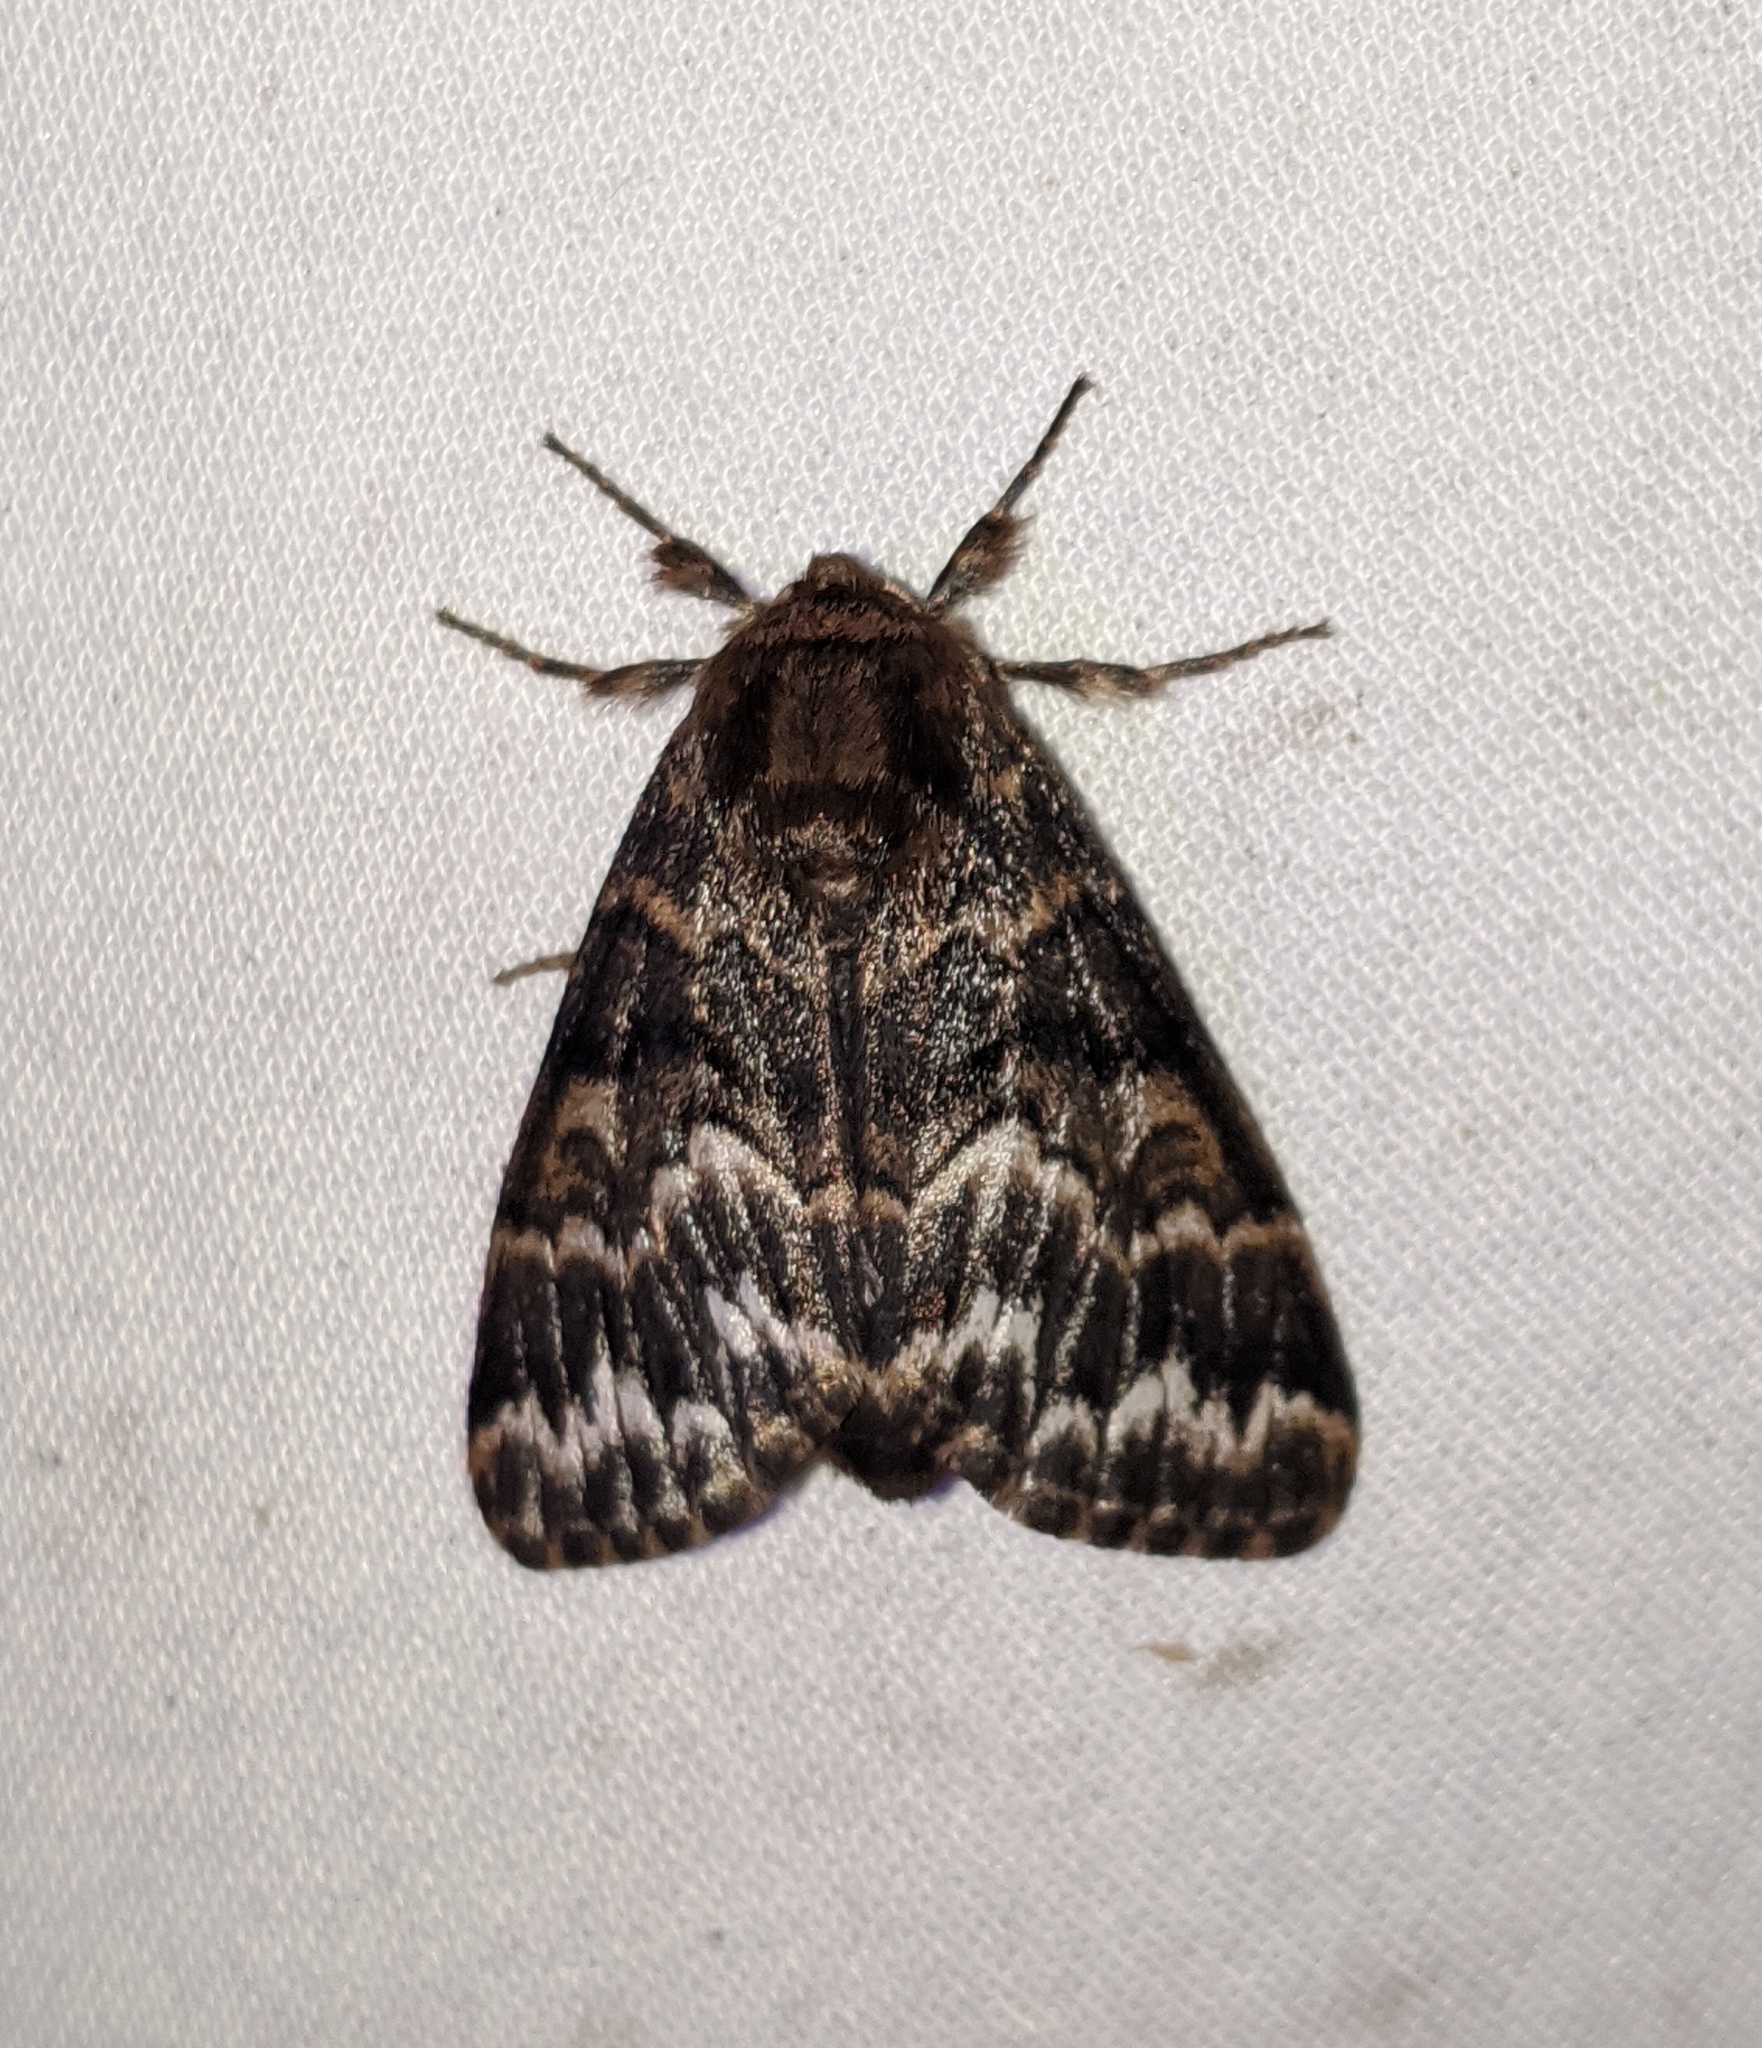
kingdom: Animalia
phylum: Arthropoda
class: Insecta
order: Lepidoptera
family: Noctuidae
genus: Panthea
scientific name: Panthea virginarius
